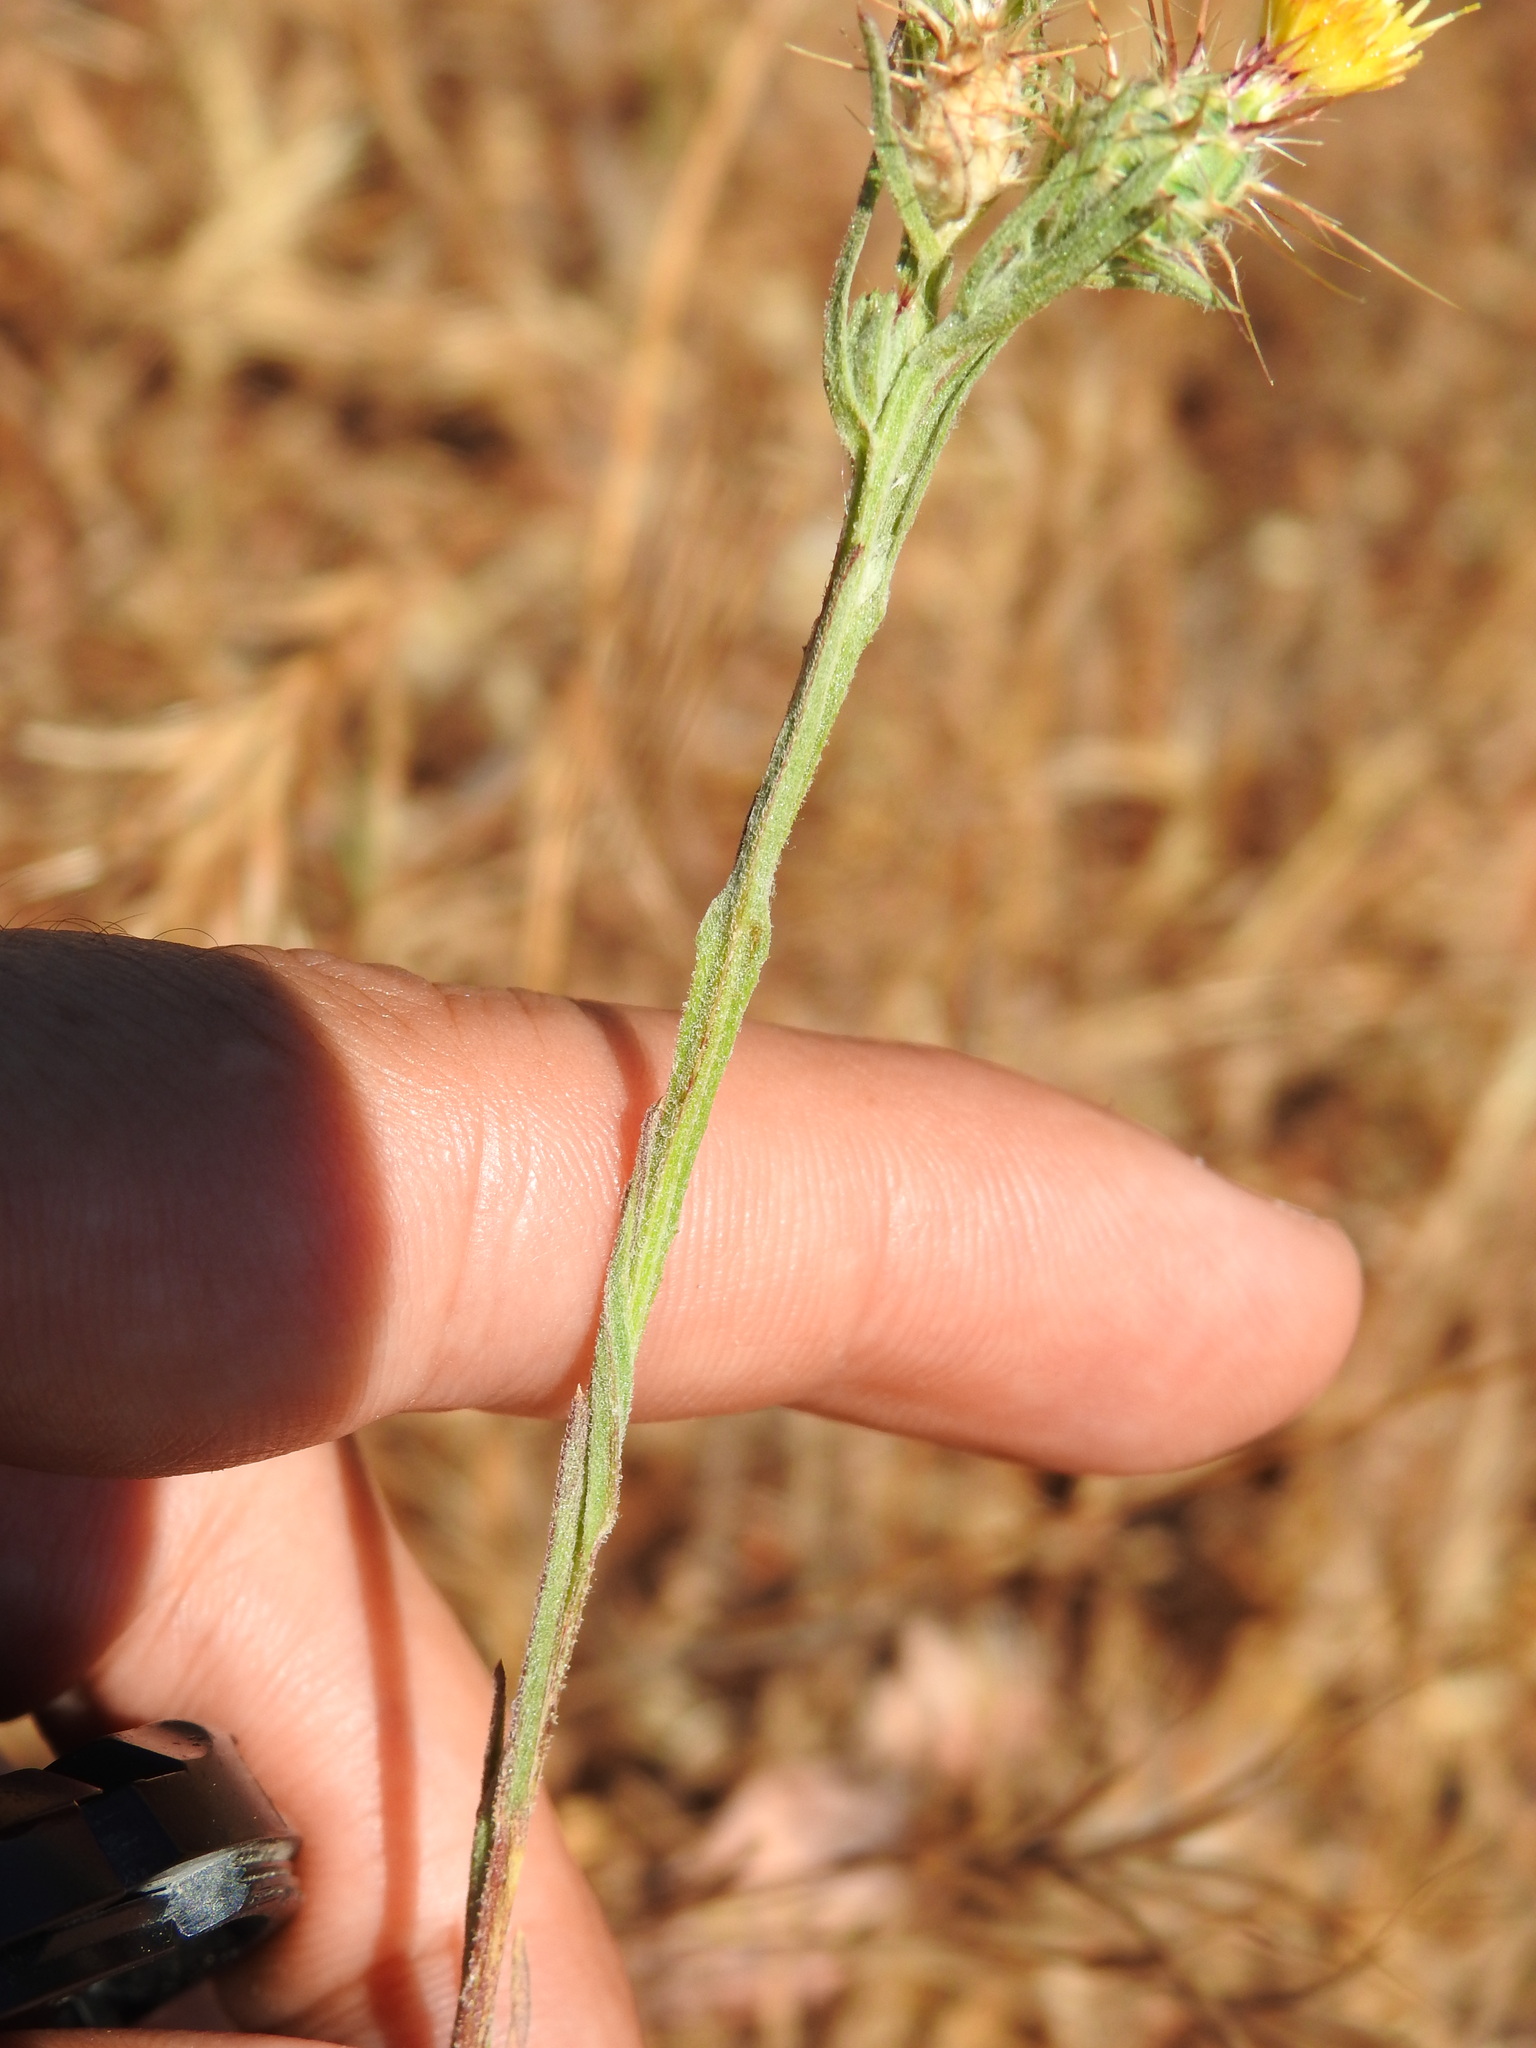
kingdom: Plantae
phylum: Tracheophyta
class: Magnoliopsida
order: Asterales
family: Asteraceae
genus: Centaurea
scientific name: Centaurea melitensis
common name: Maltese star-thistle
